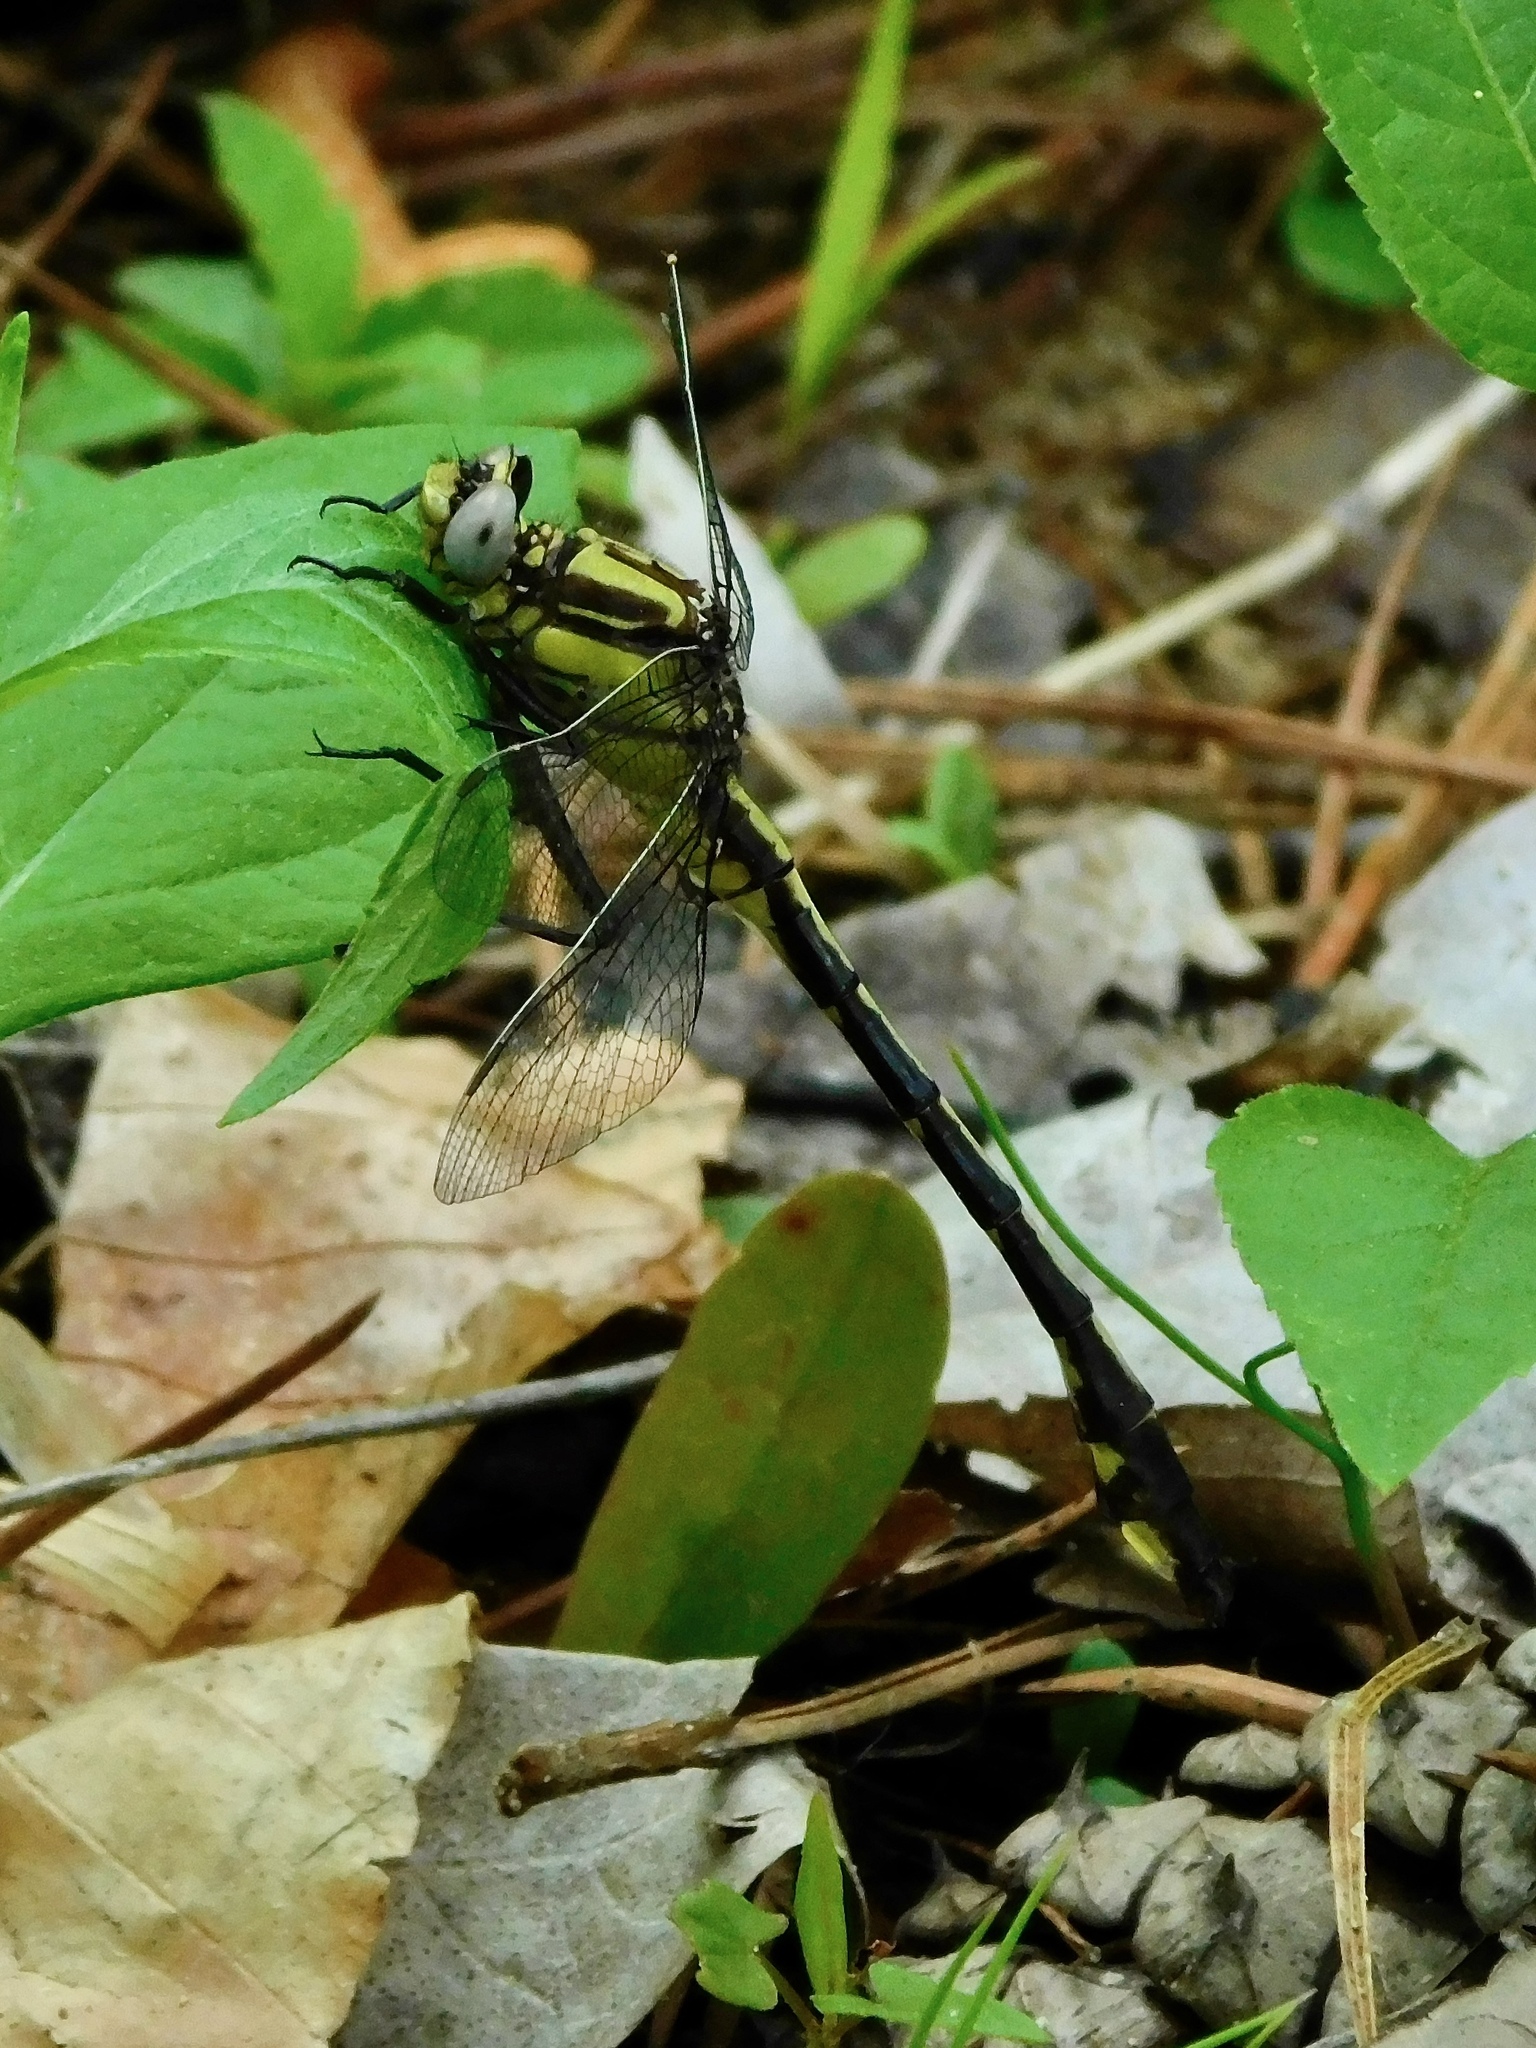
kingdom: Animalia
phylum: Arthropoda
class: Insecta
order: Odonata
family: Gomphidae
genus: Gomphurus
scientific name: Gomphurus septima
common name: Septima's clubtail
